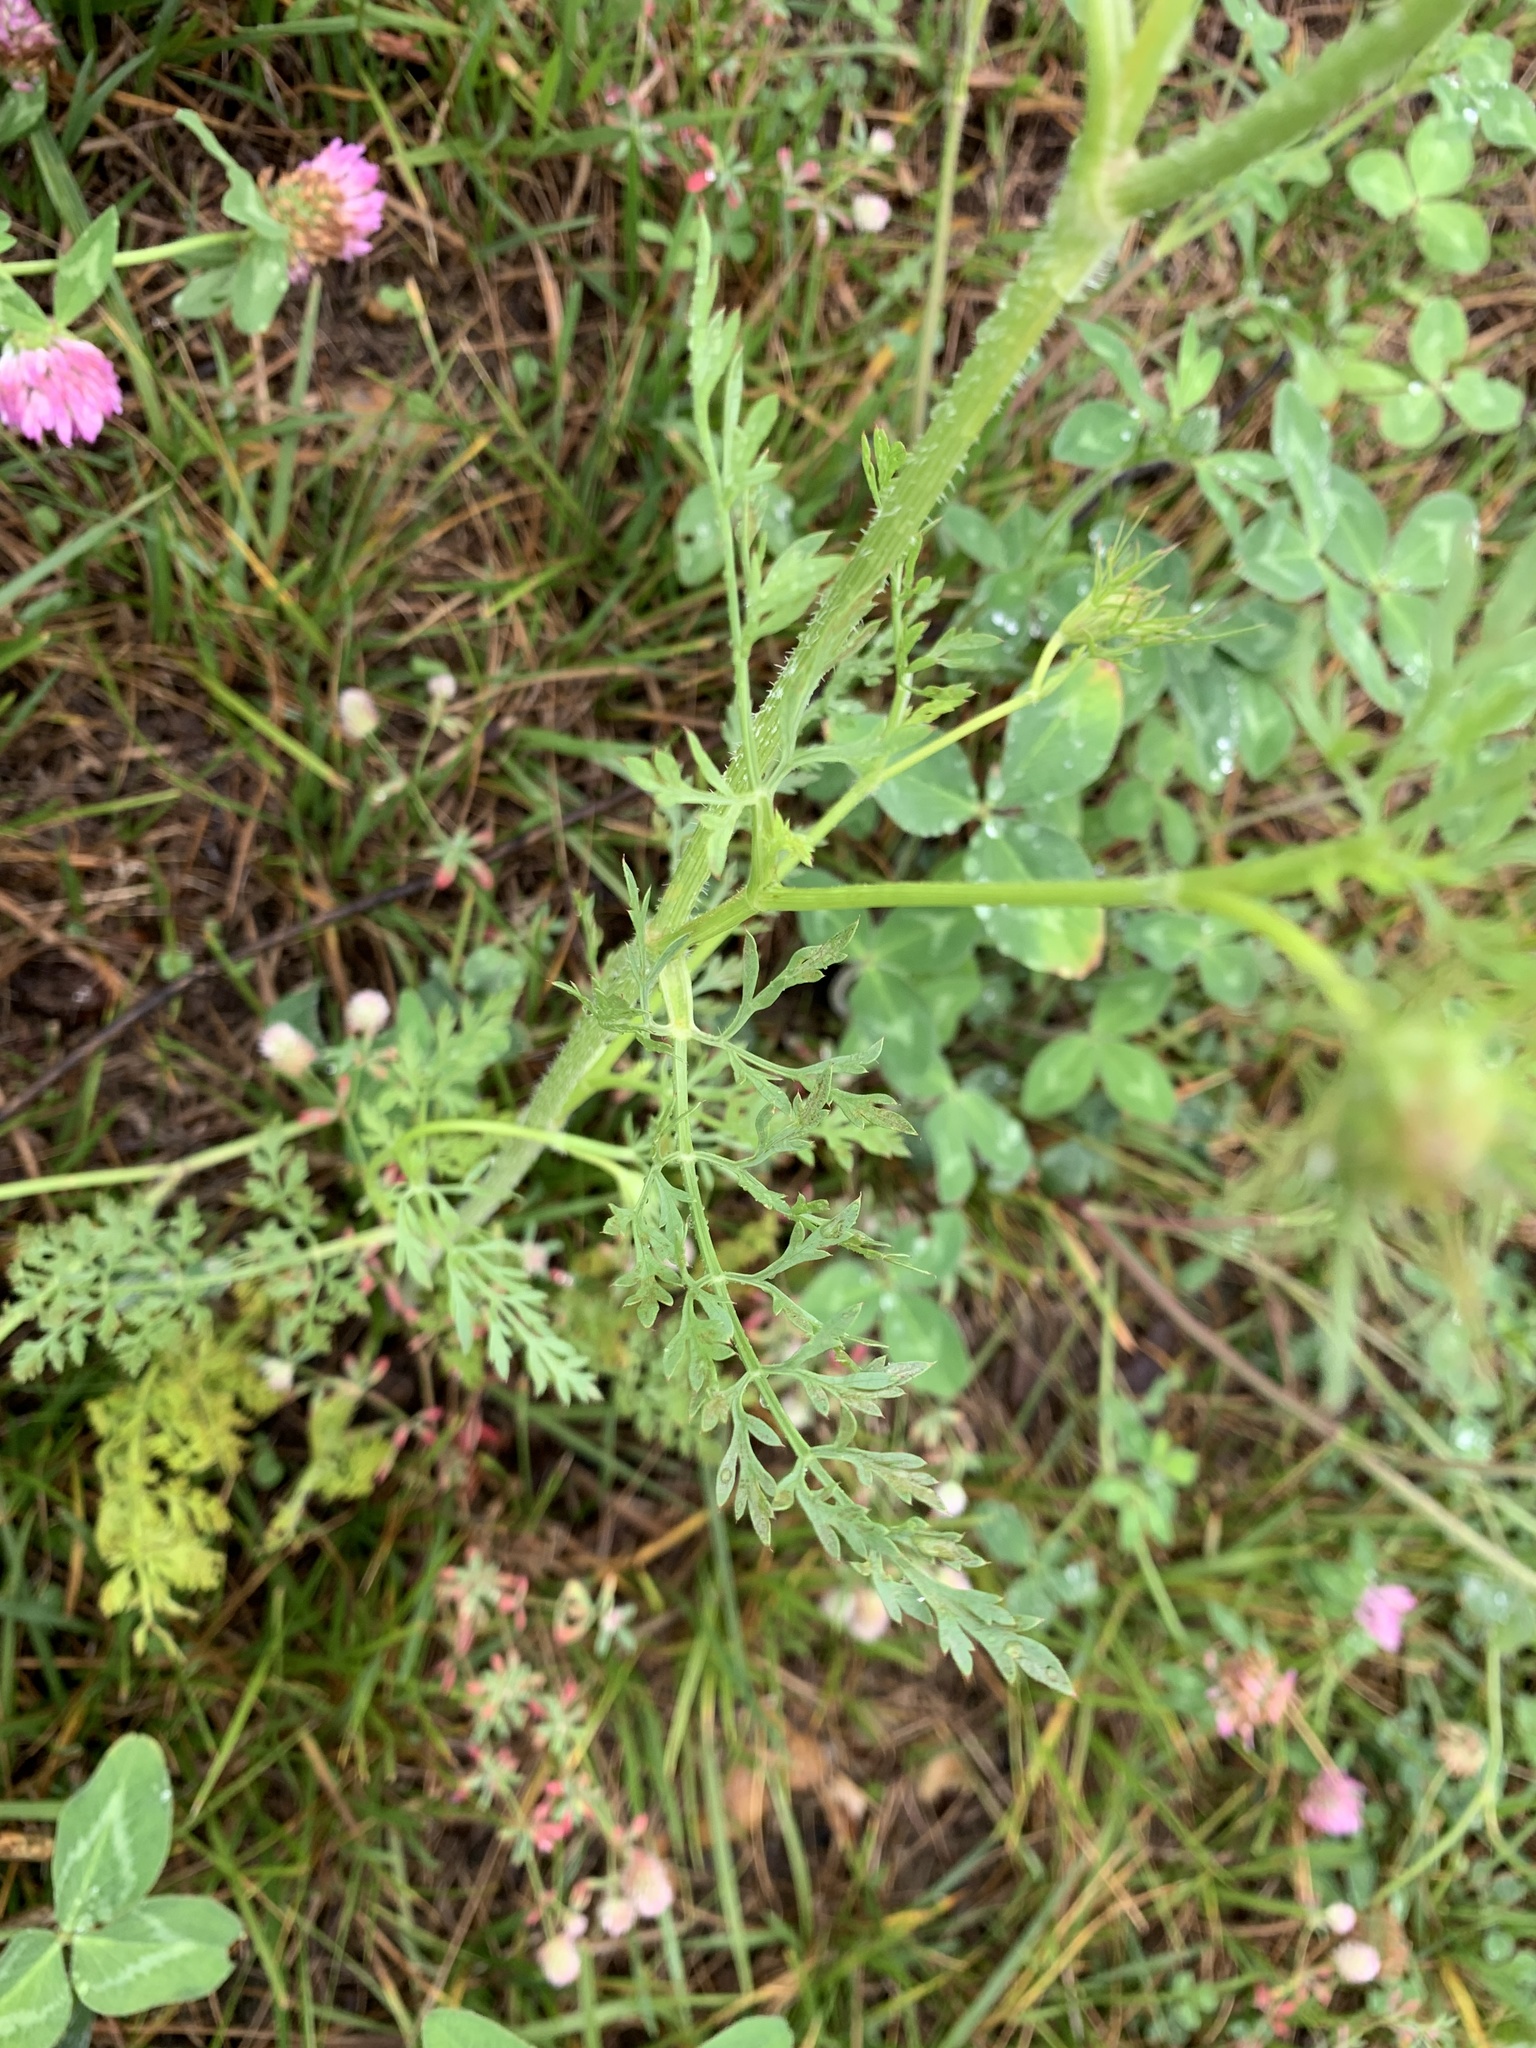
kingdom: Plantae
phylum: Tracheophyta
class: Magnoliopsida
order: Apiales
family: Apiaceae
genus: Daucus
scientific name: Daucus carota
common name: Wild carrot
